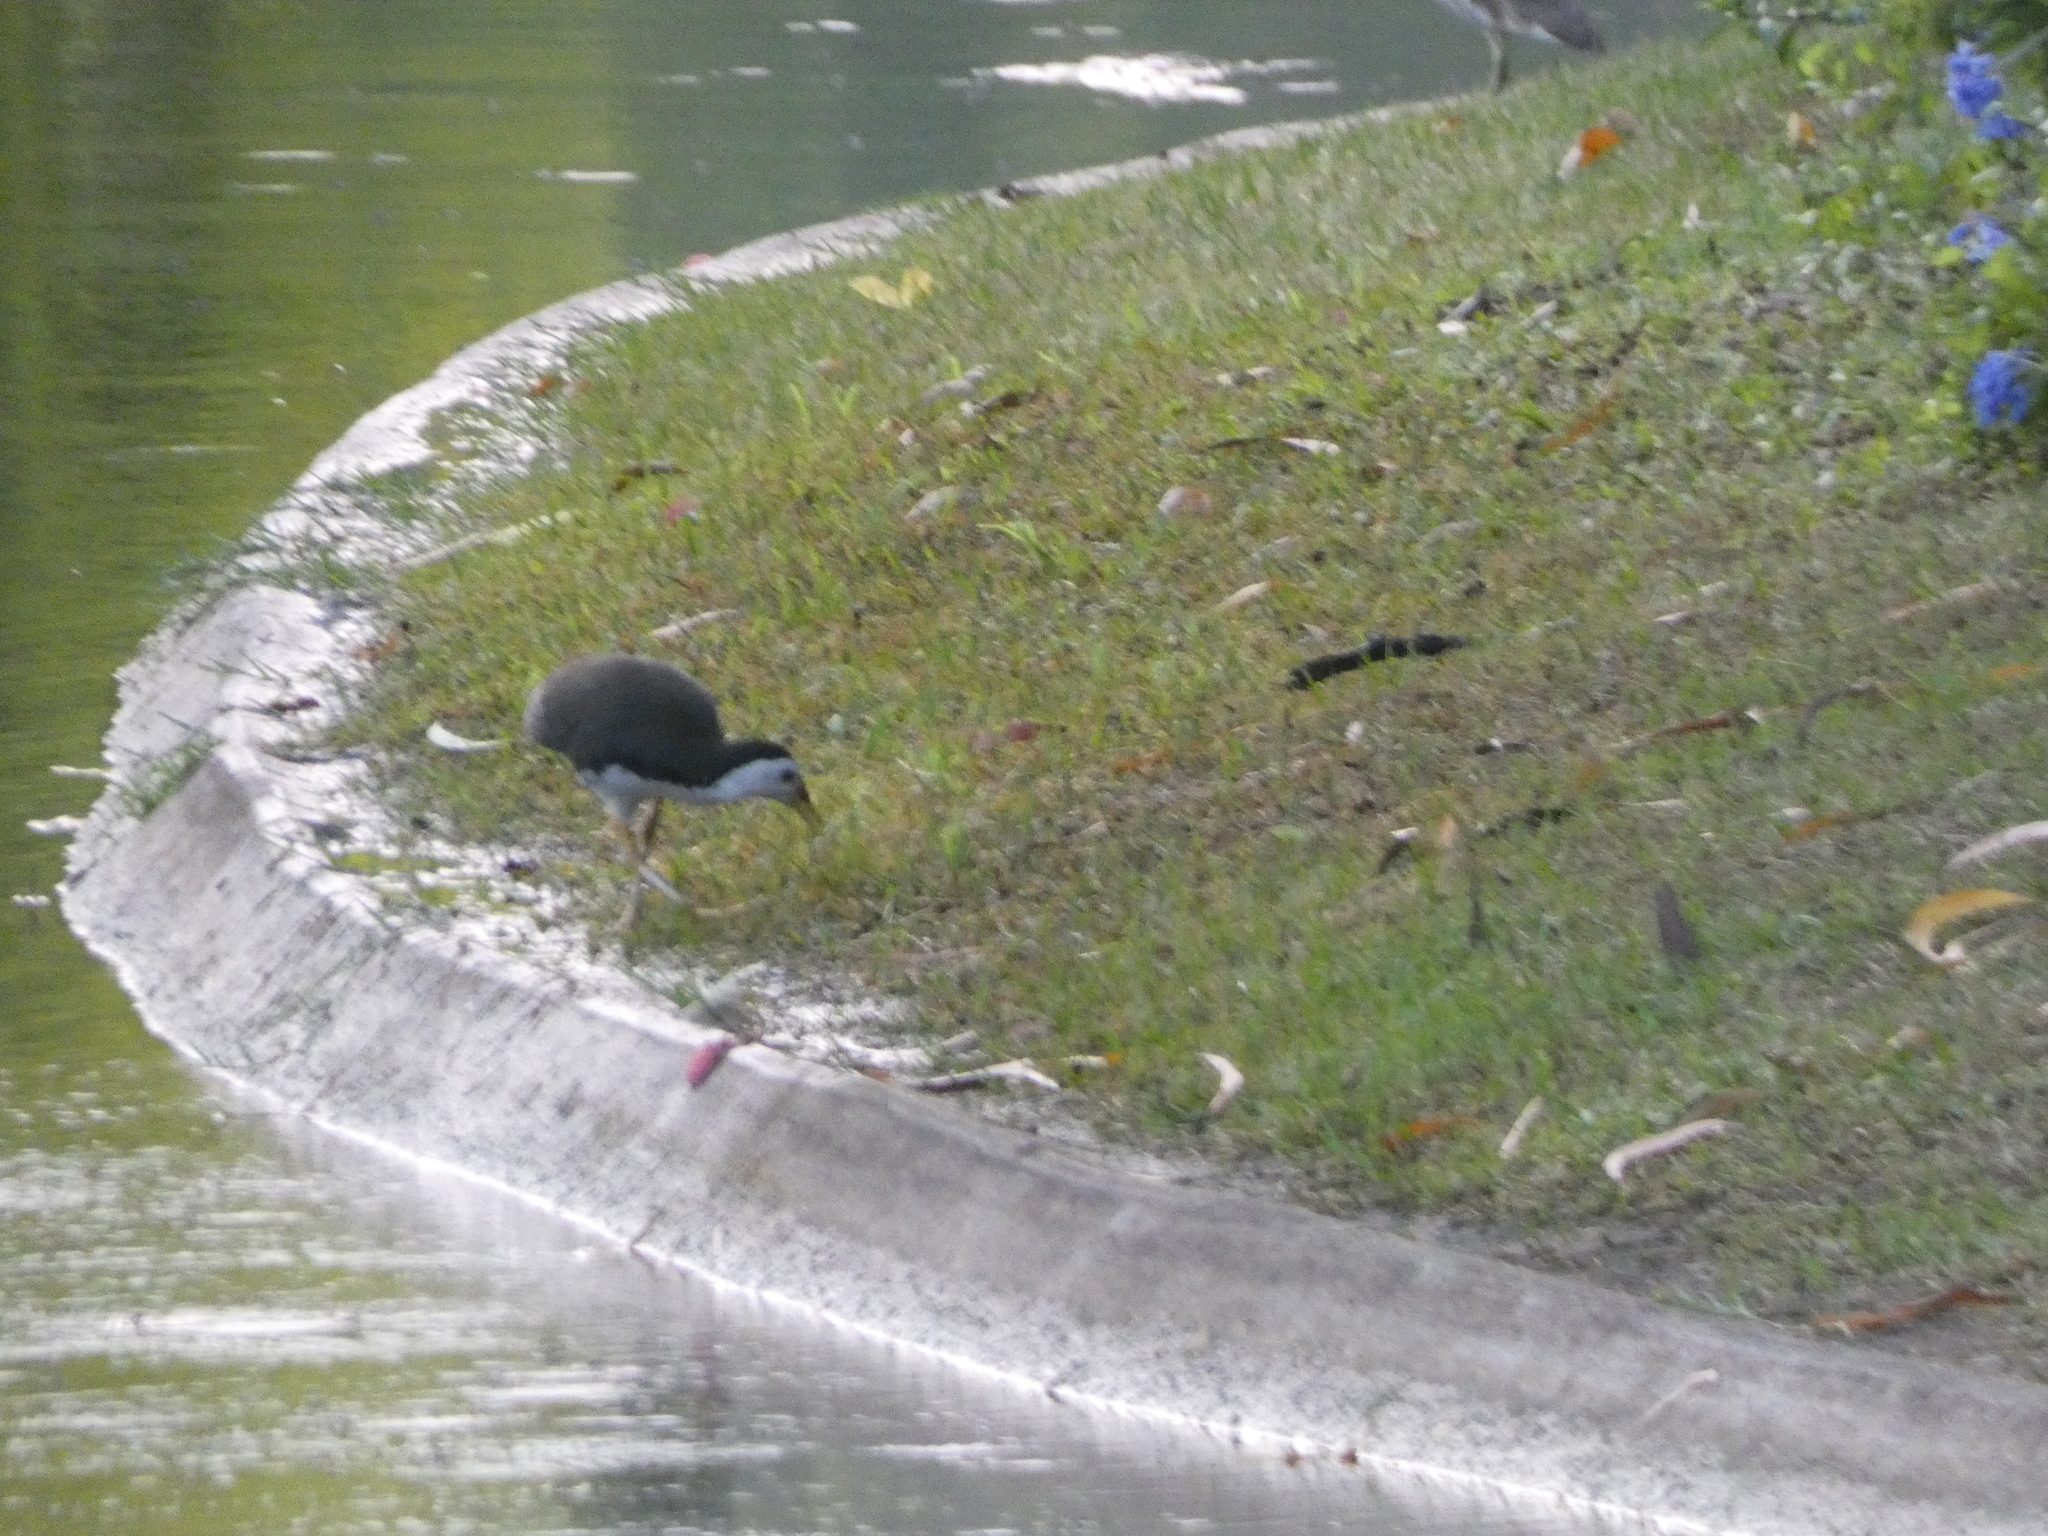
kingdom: Animalia
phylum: Chordata
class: Aves
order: Gruiformes
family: Rallidae
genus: Amaurornis
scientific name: Amaurornis phoenicurus
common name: White-breasted waterhen
